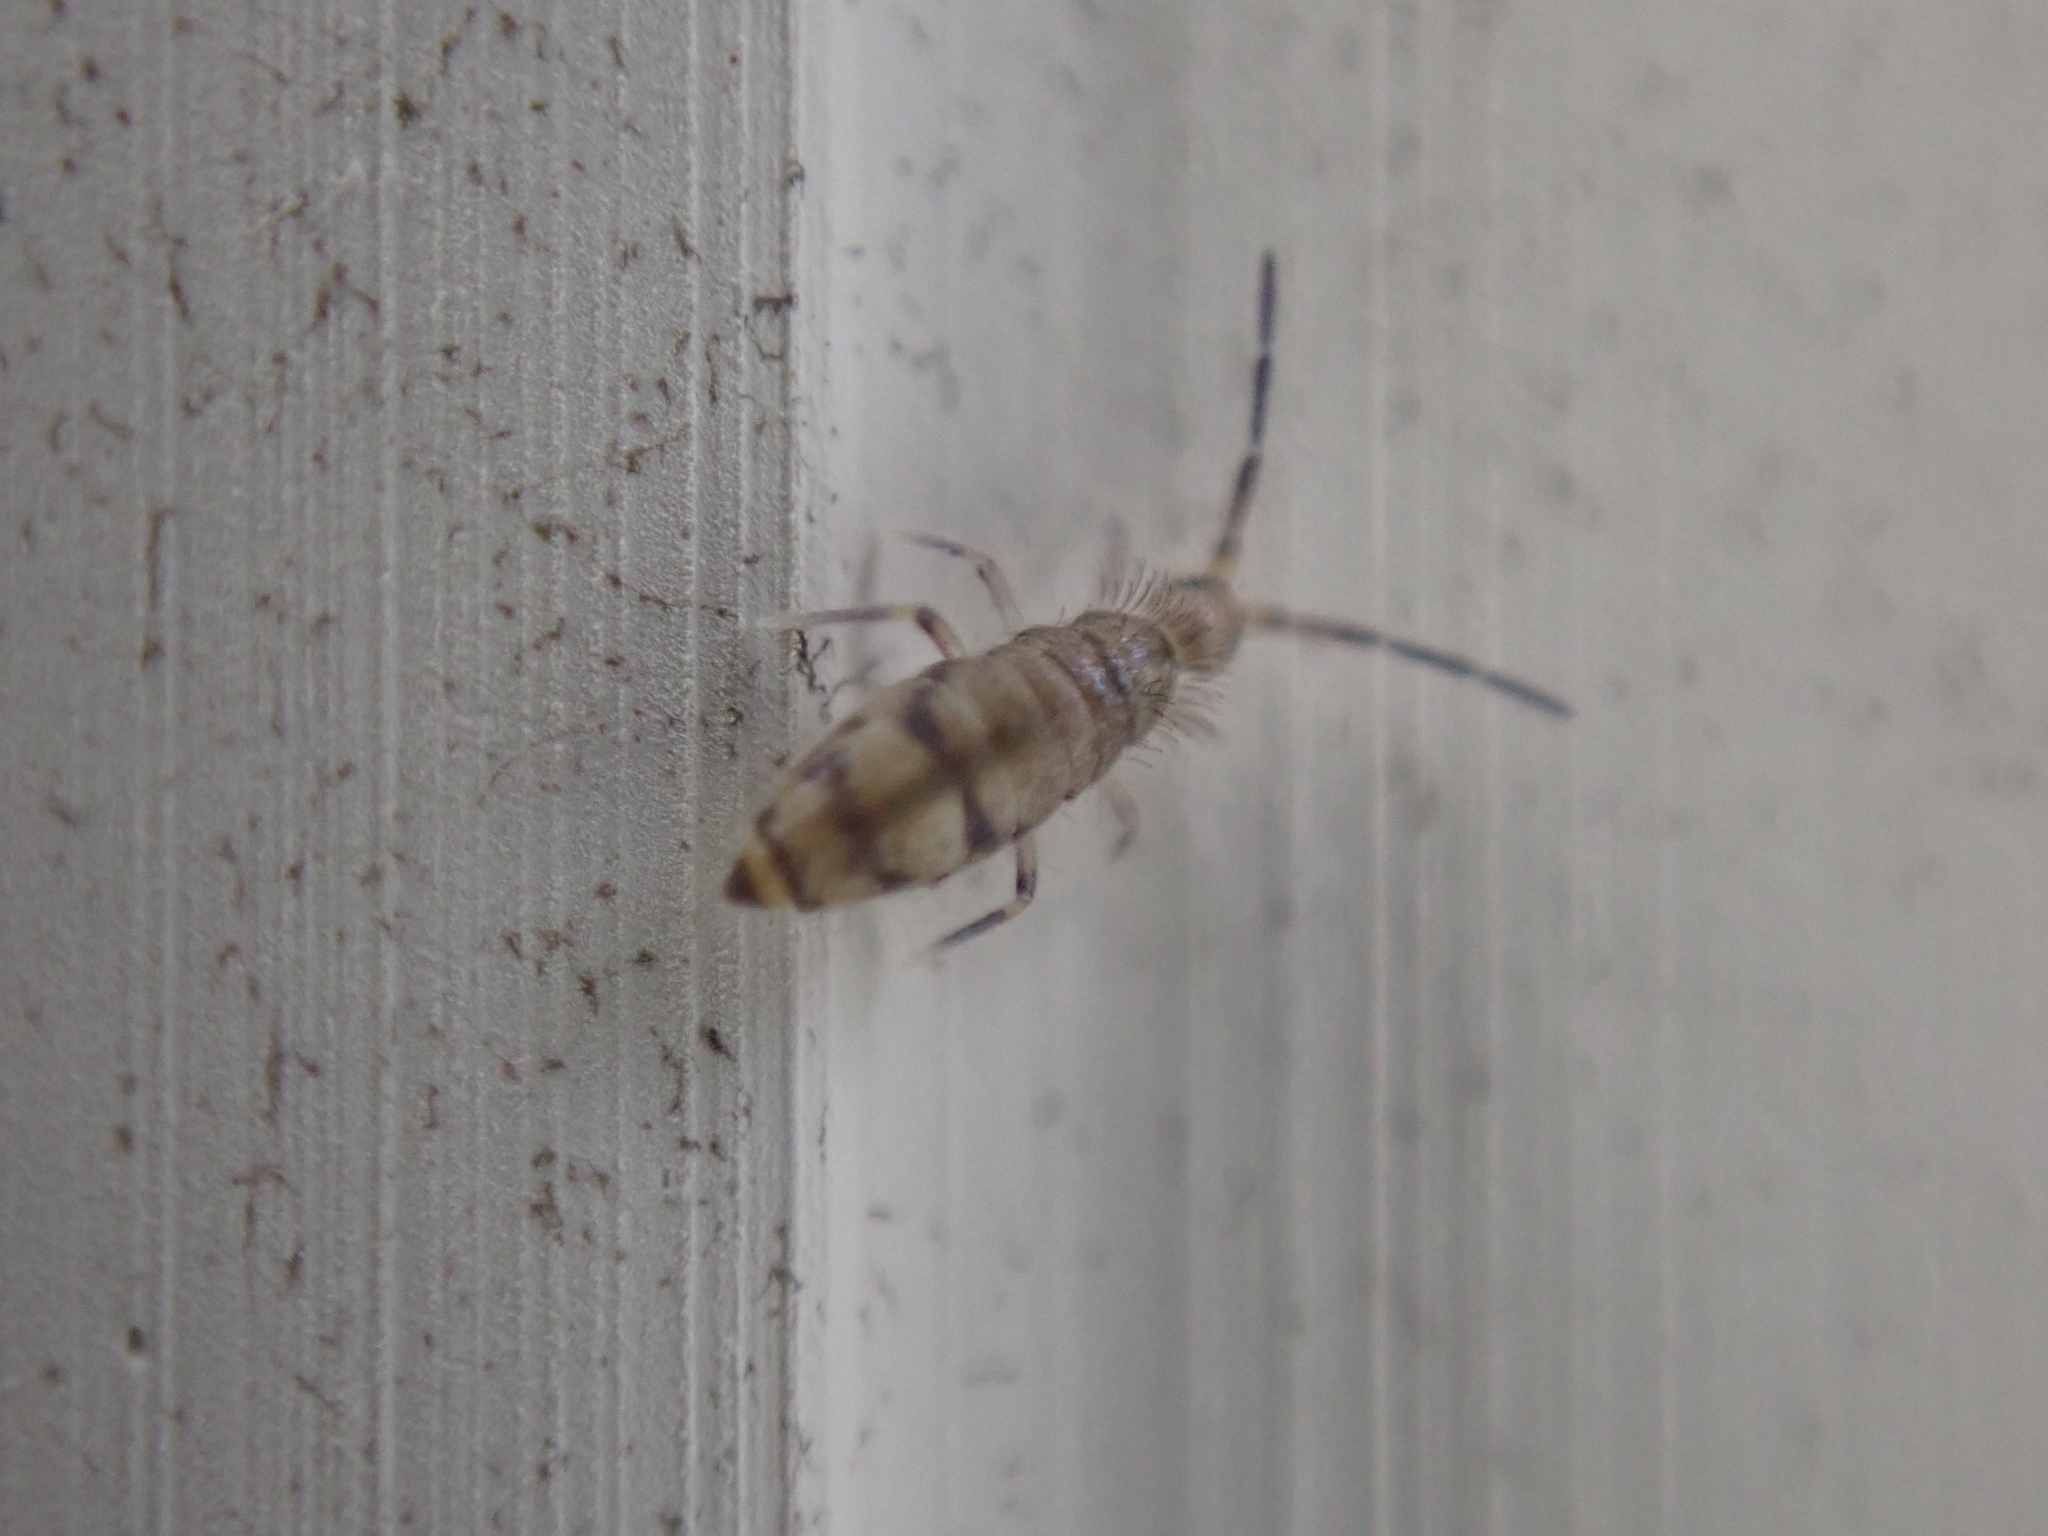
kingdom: Animalia
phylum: Arthropoda
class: Collembola
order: Entomobryomorpha
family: Entomobryidae
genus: Willowsia
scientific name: Willowsia nigromaculata
